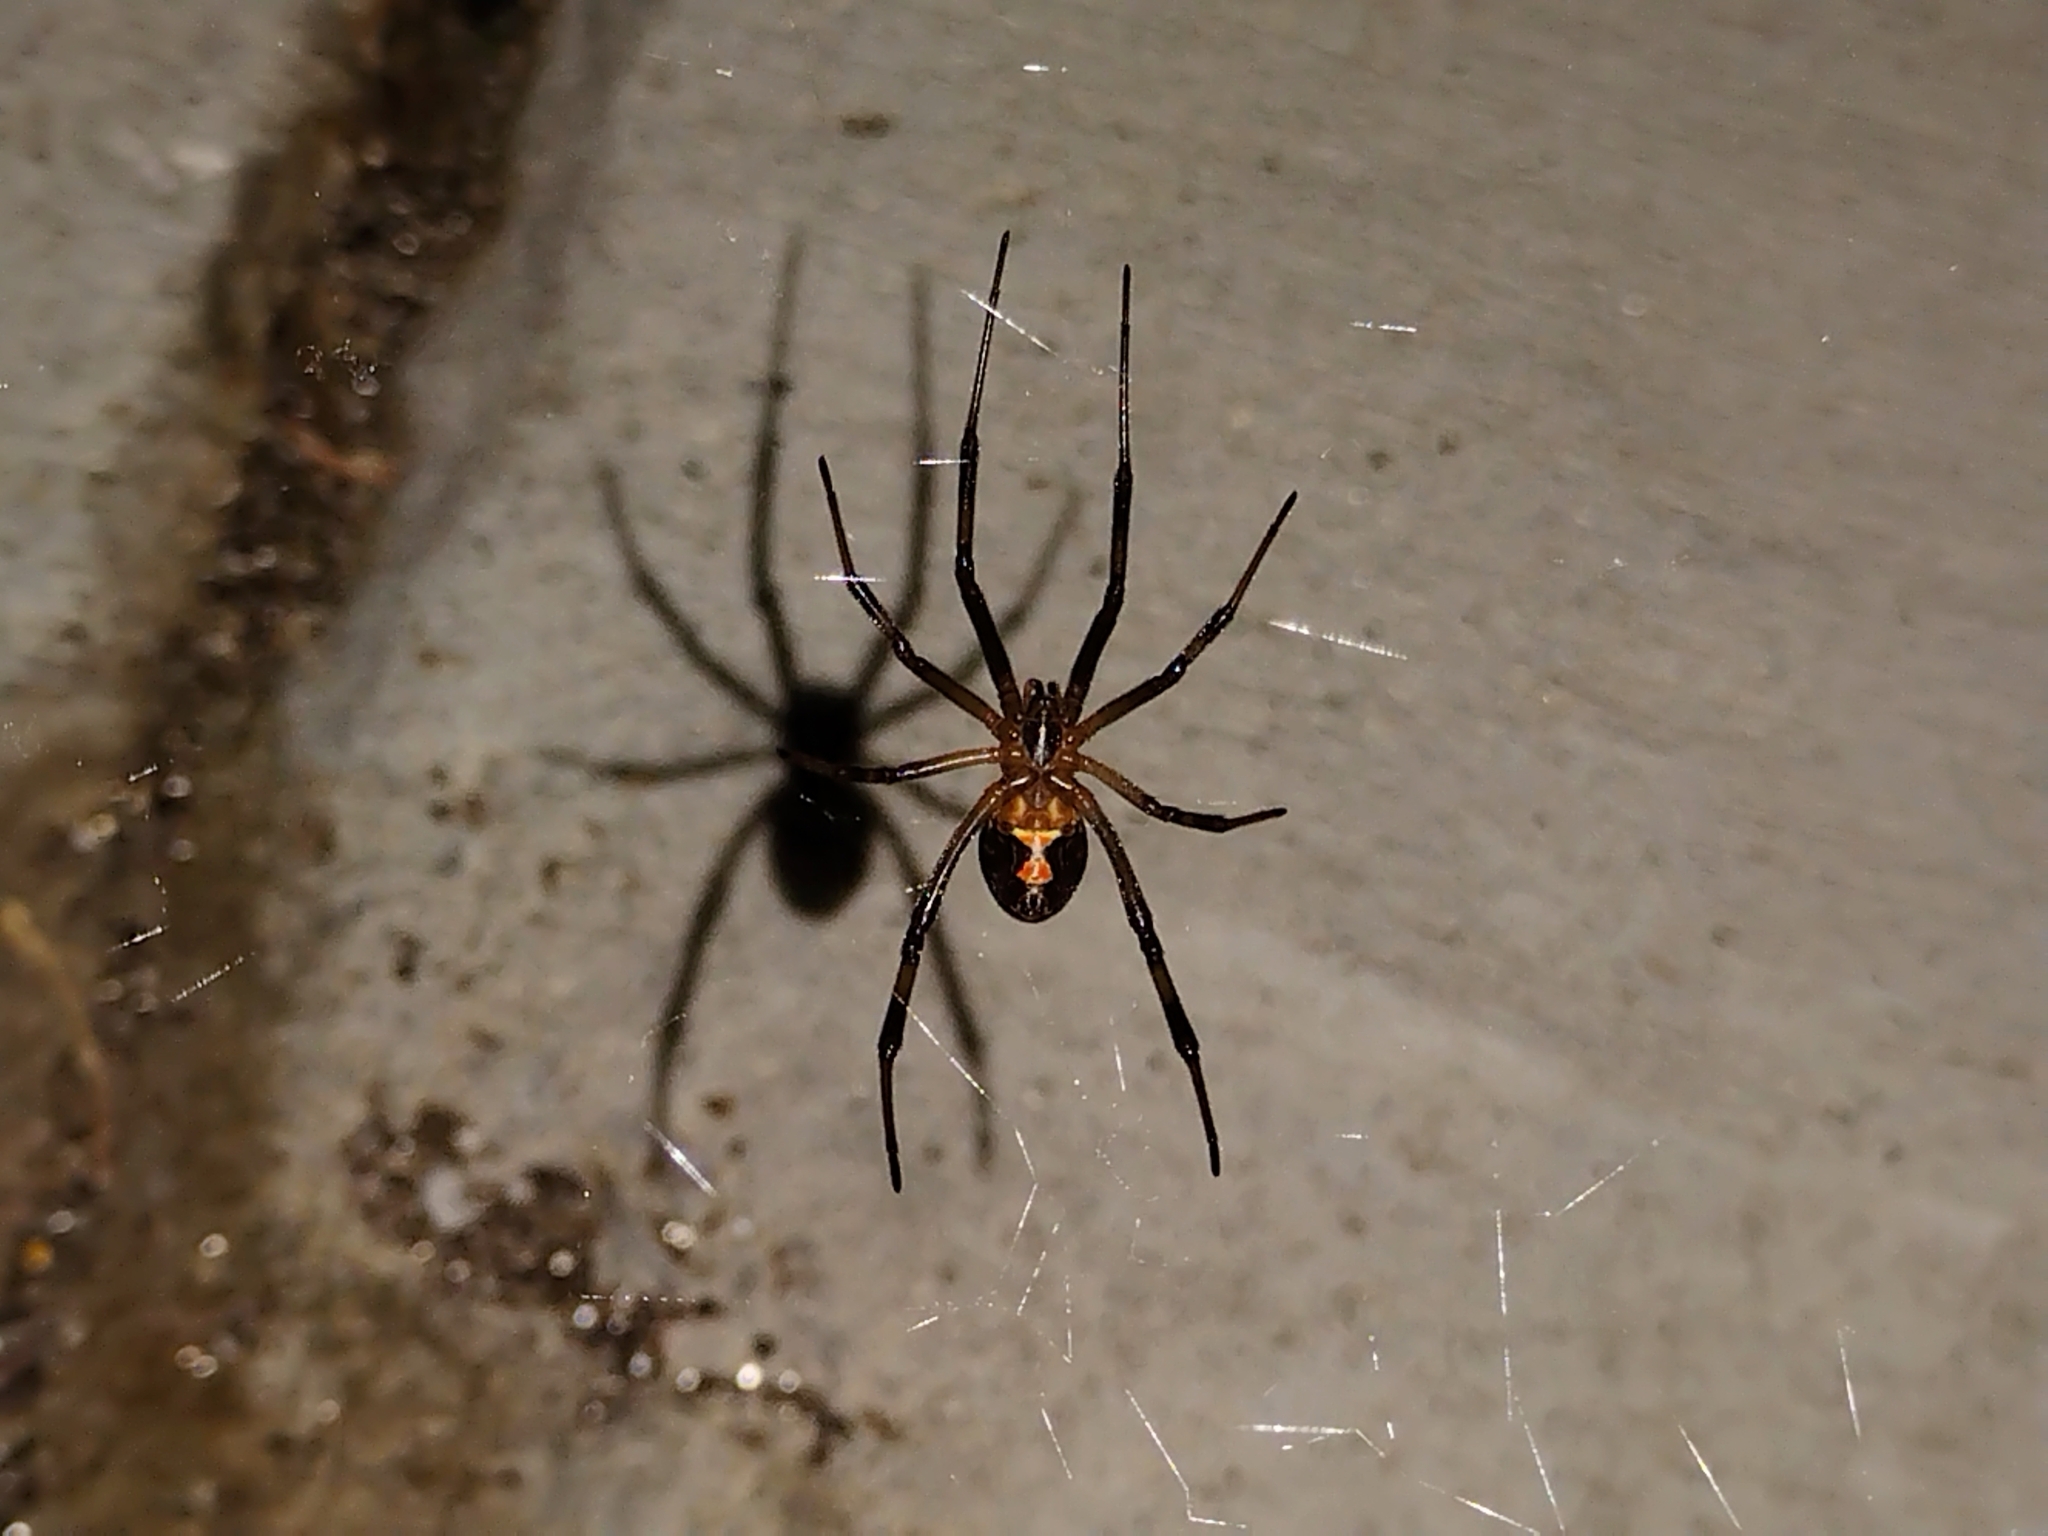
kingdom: Animalia
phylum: Arthropoda
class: Arachnida
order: Araneae
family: Theridiidae
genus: Latrodectus
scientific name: Latrodectus geometricus
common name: Brown widow spider
